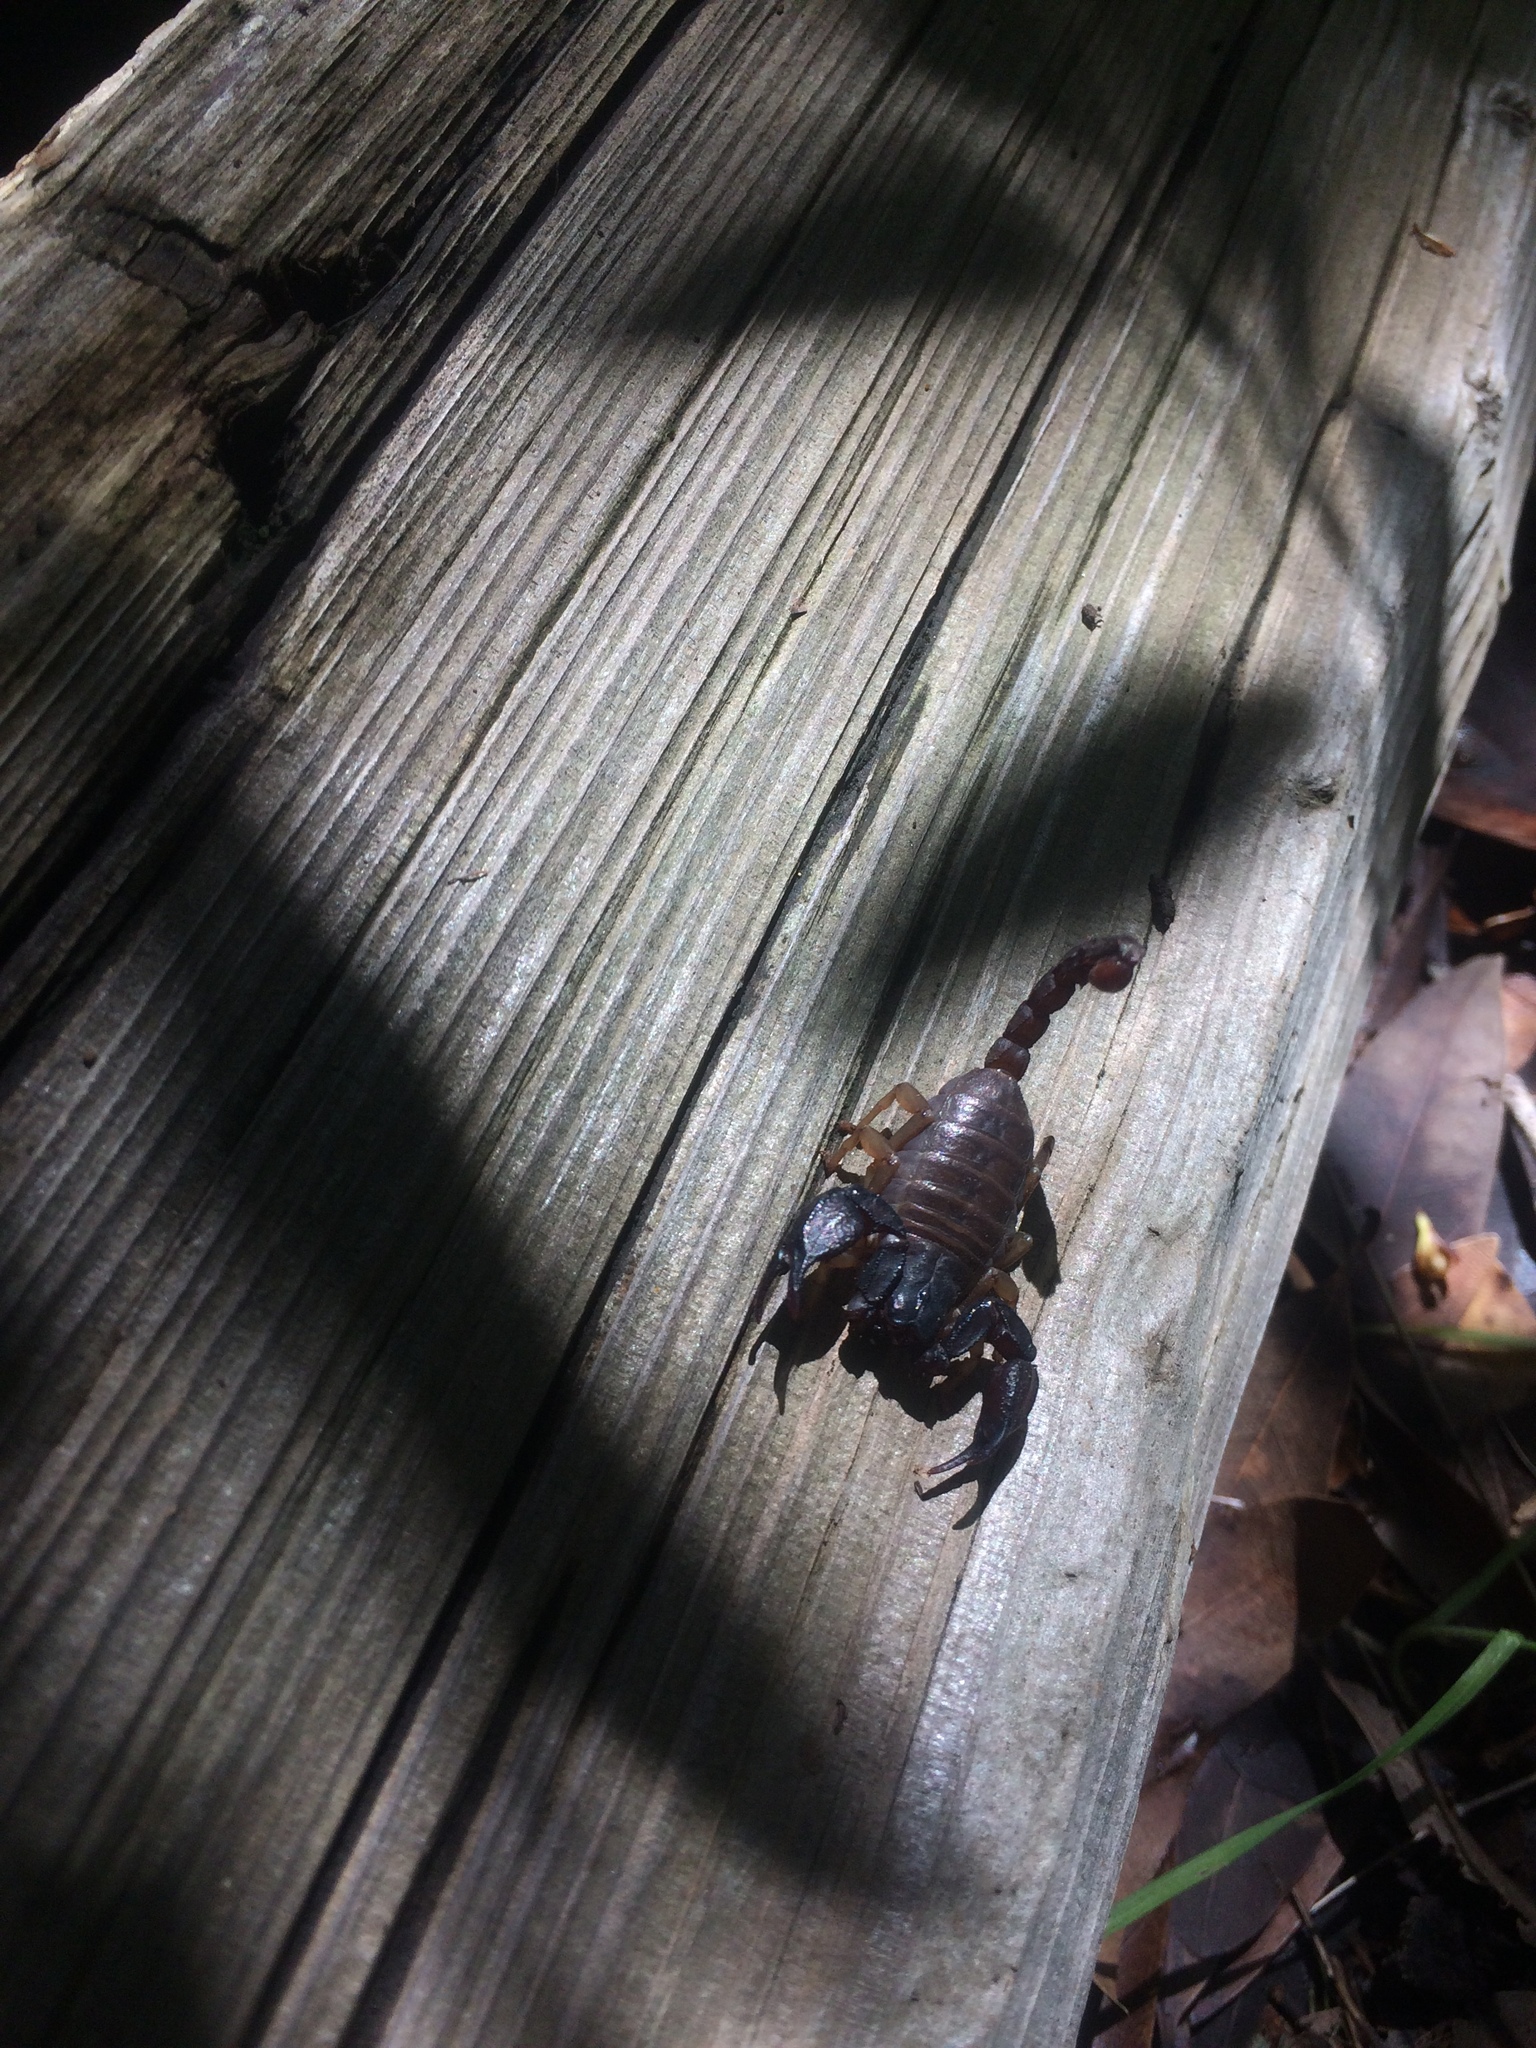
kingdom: Animalia
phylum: Arthropoda
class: Arachnida
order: Scorpiones
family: Chactidae
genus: Uroctonus
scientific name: Uroctonus mordax
